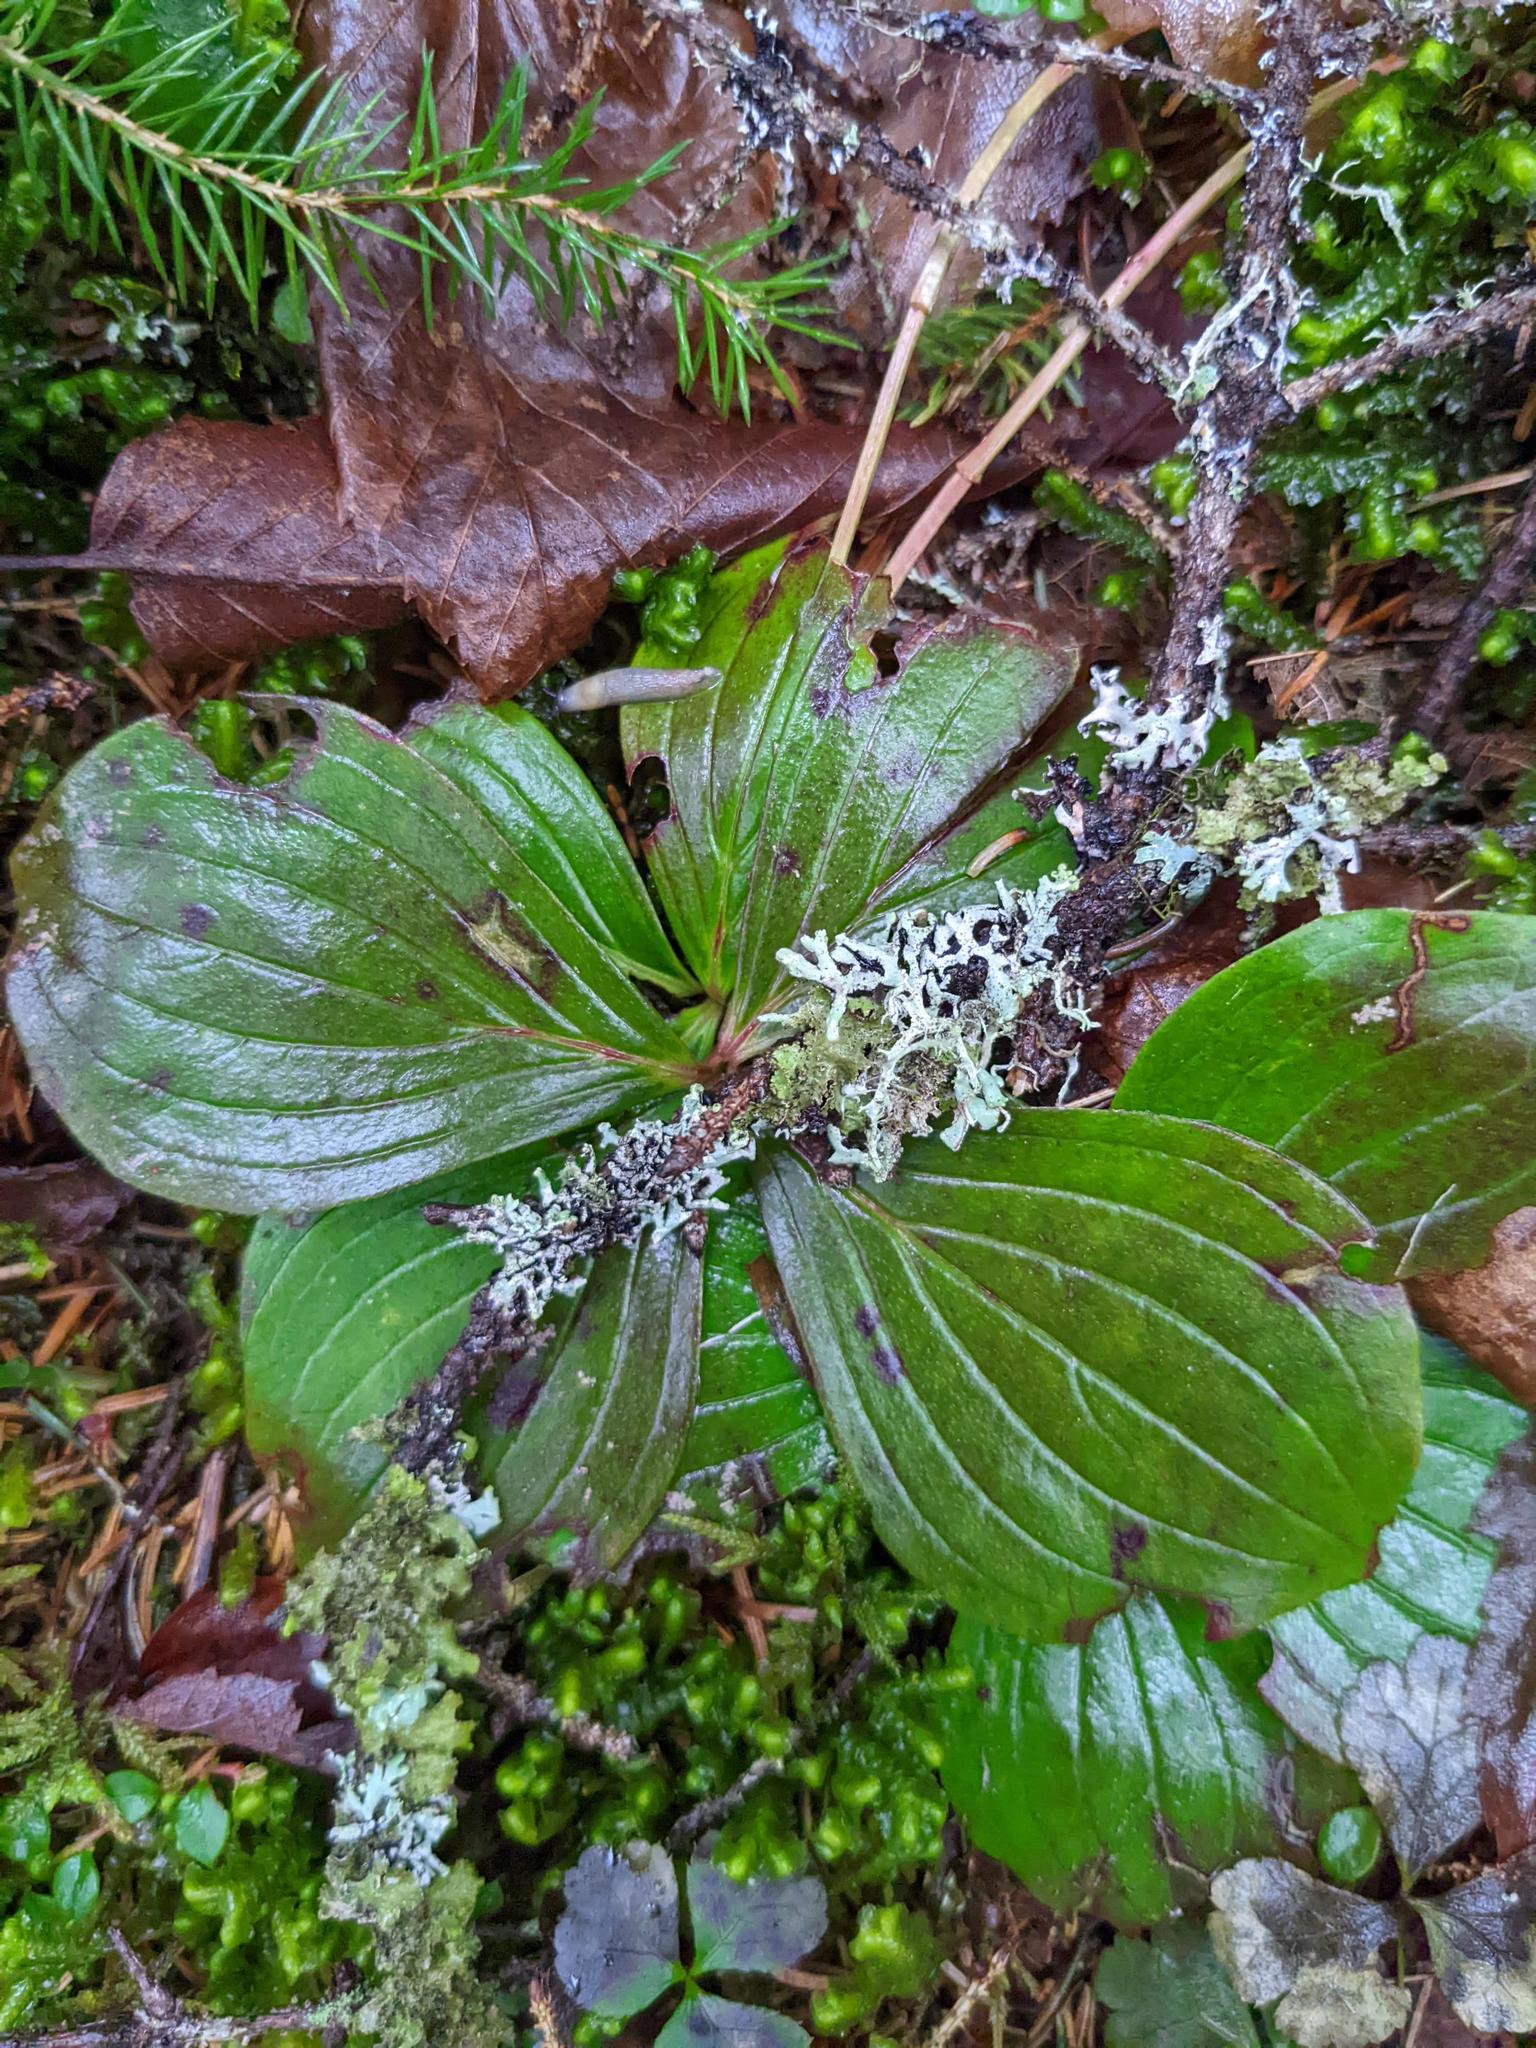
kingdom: Plantae
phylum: Tracheophyta
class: Magnoliopsida
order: Cornales
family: Cornaceae
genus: Cornus
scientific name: Cornus canadensis
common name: Creeping dogwood
